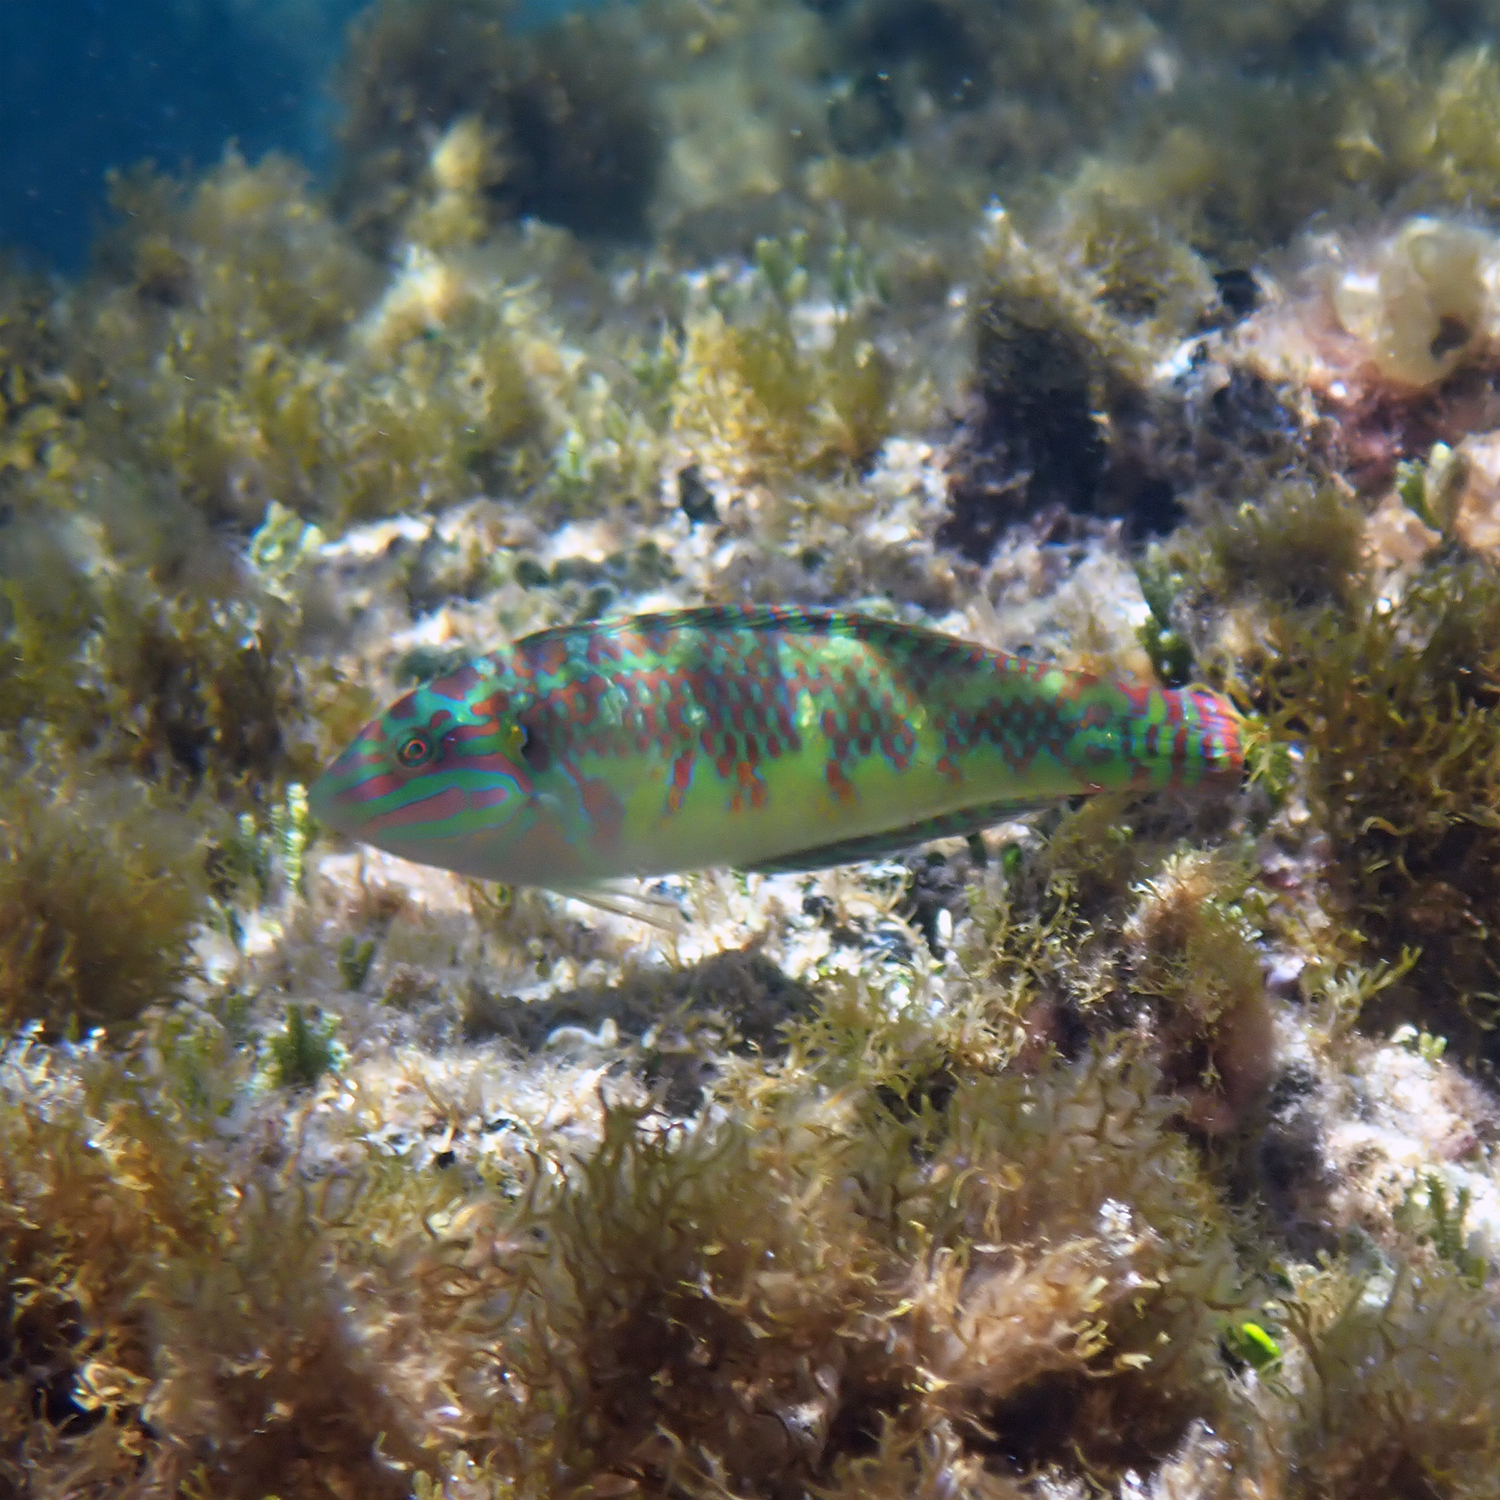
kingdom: Animalia
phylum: Chordata
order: Perciformes
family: Labridae
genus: Halichoeres
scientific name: Halichoeres margaritaceus
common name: Pink-belly wrasse
